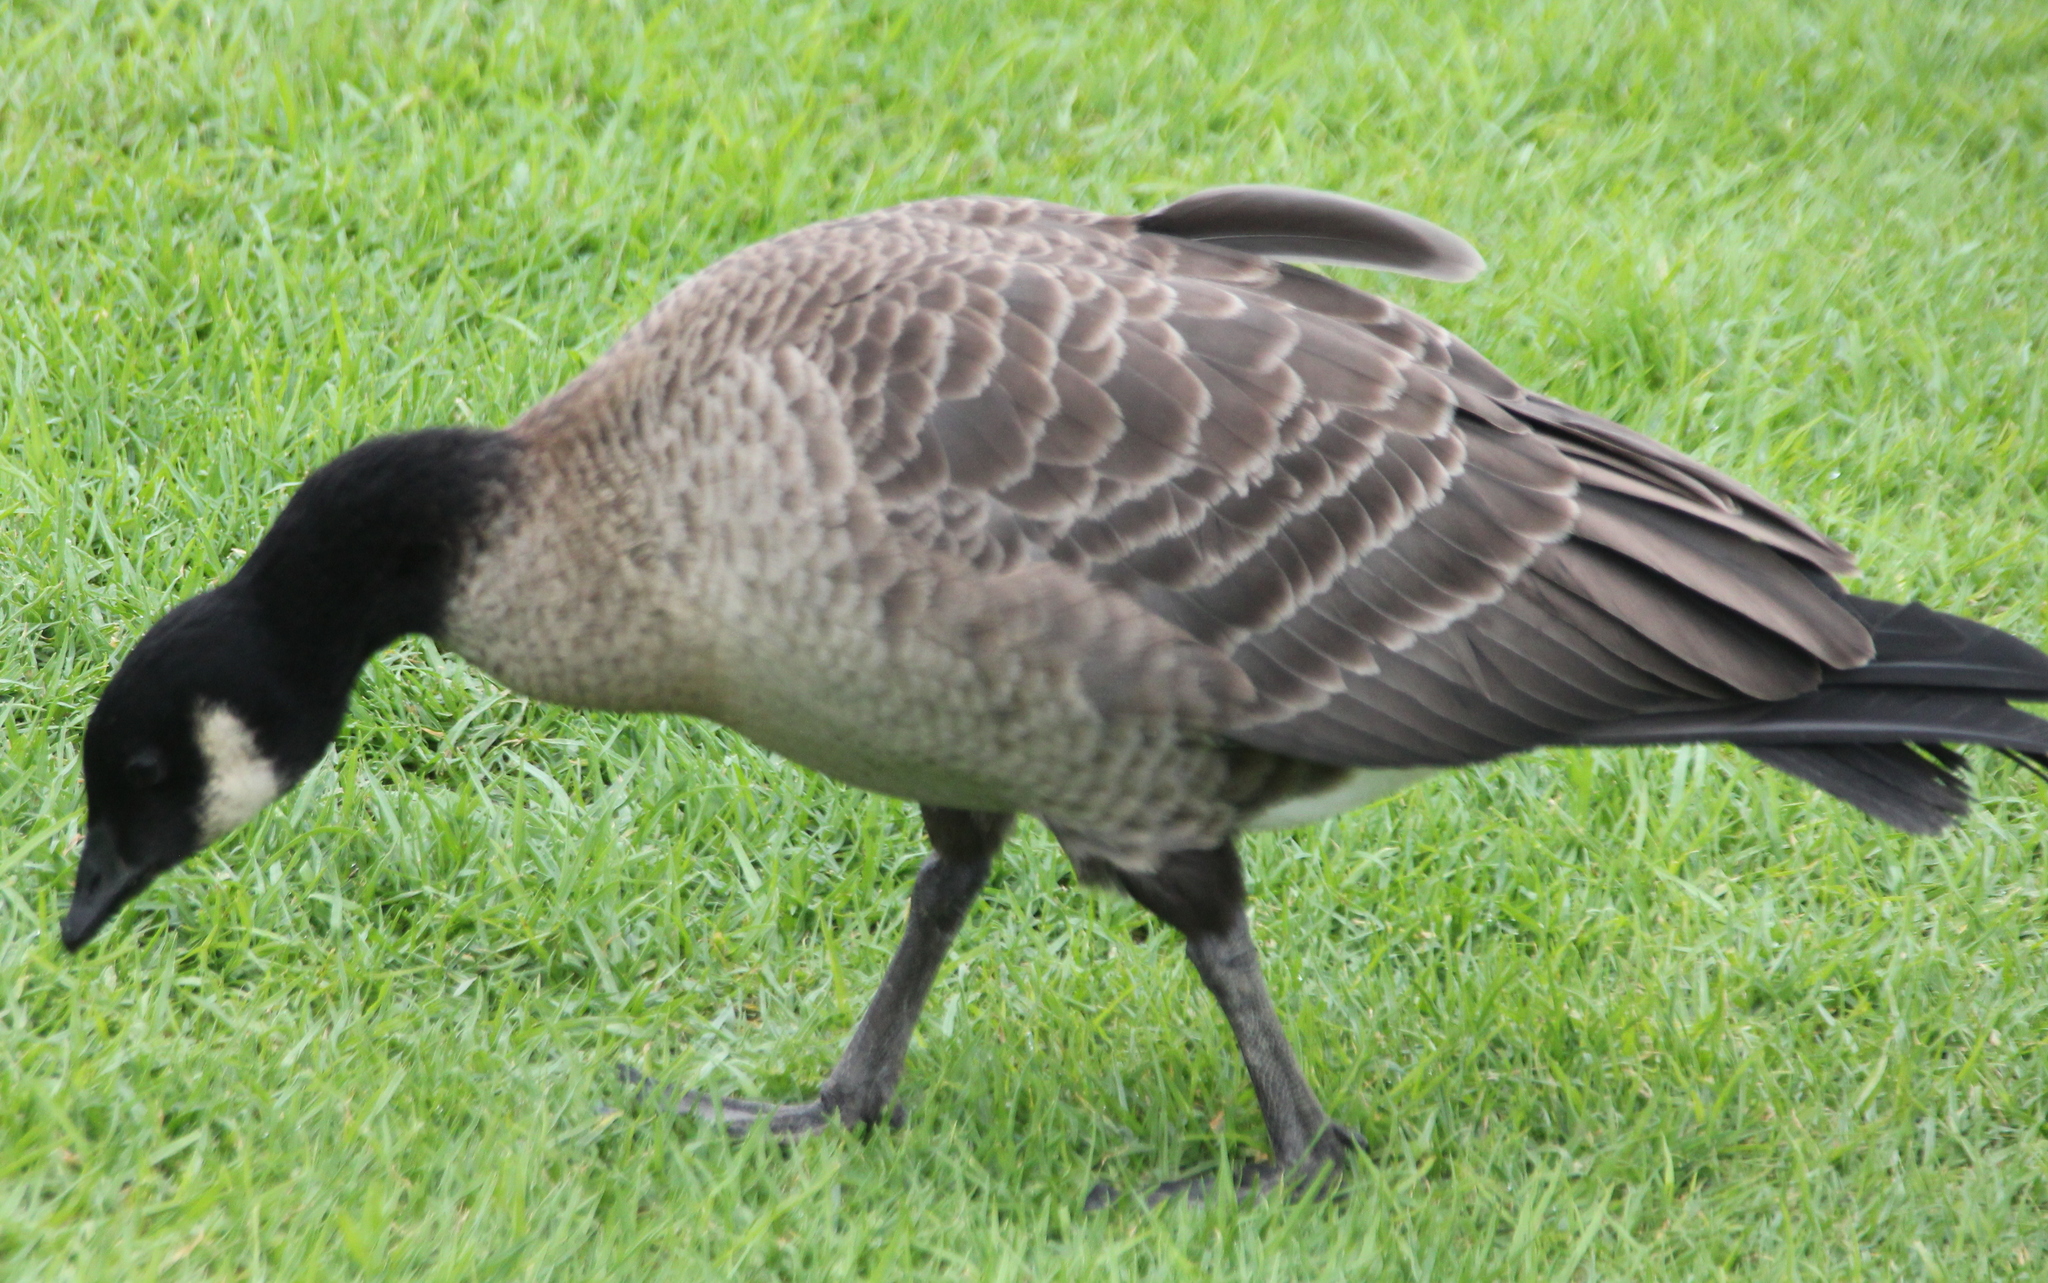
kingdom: Animalia
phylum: Chordata
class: Aves
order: Anseriformes
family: Anatidae
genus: Branta
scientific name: Branta hutchinsii
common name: Cackling goose
